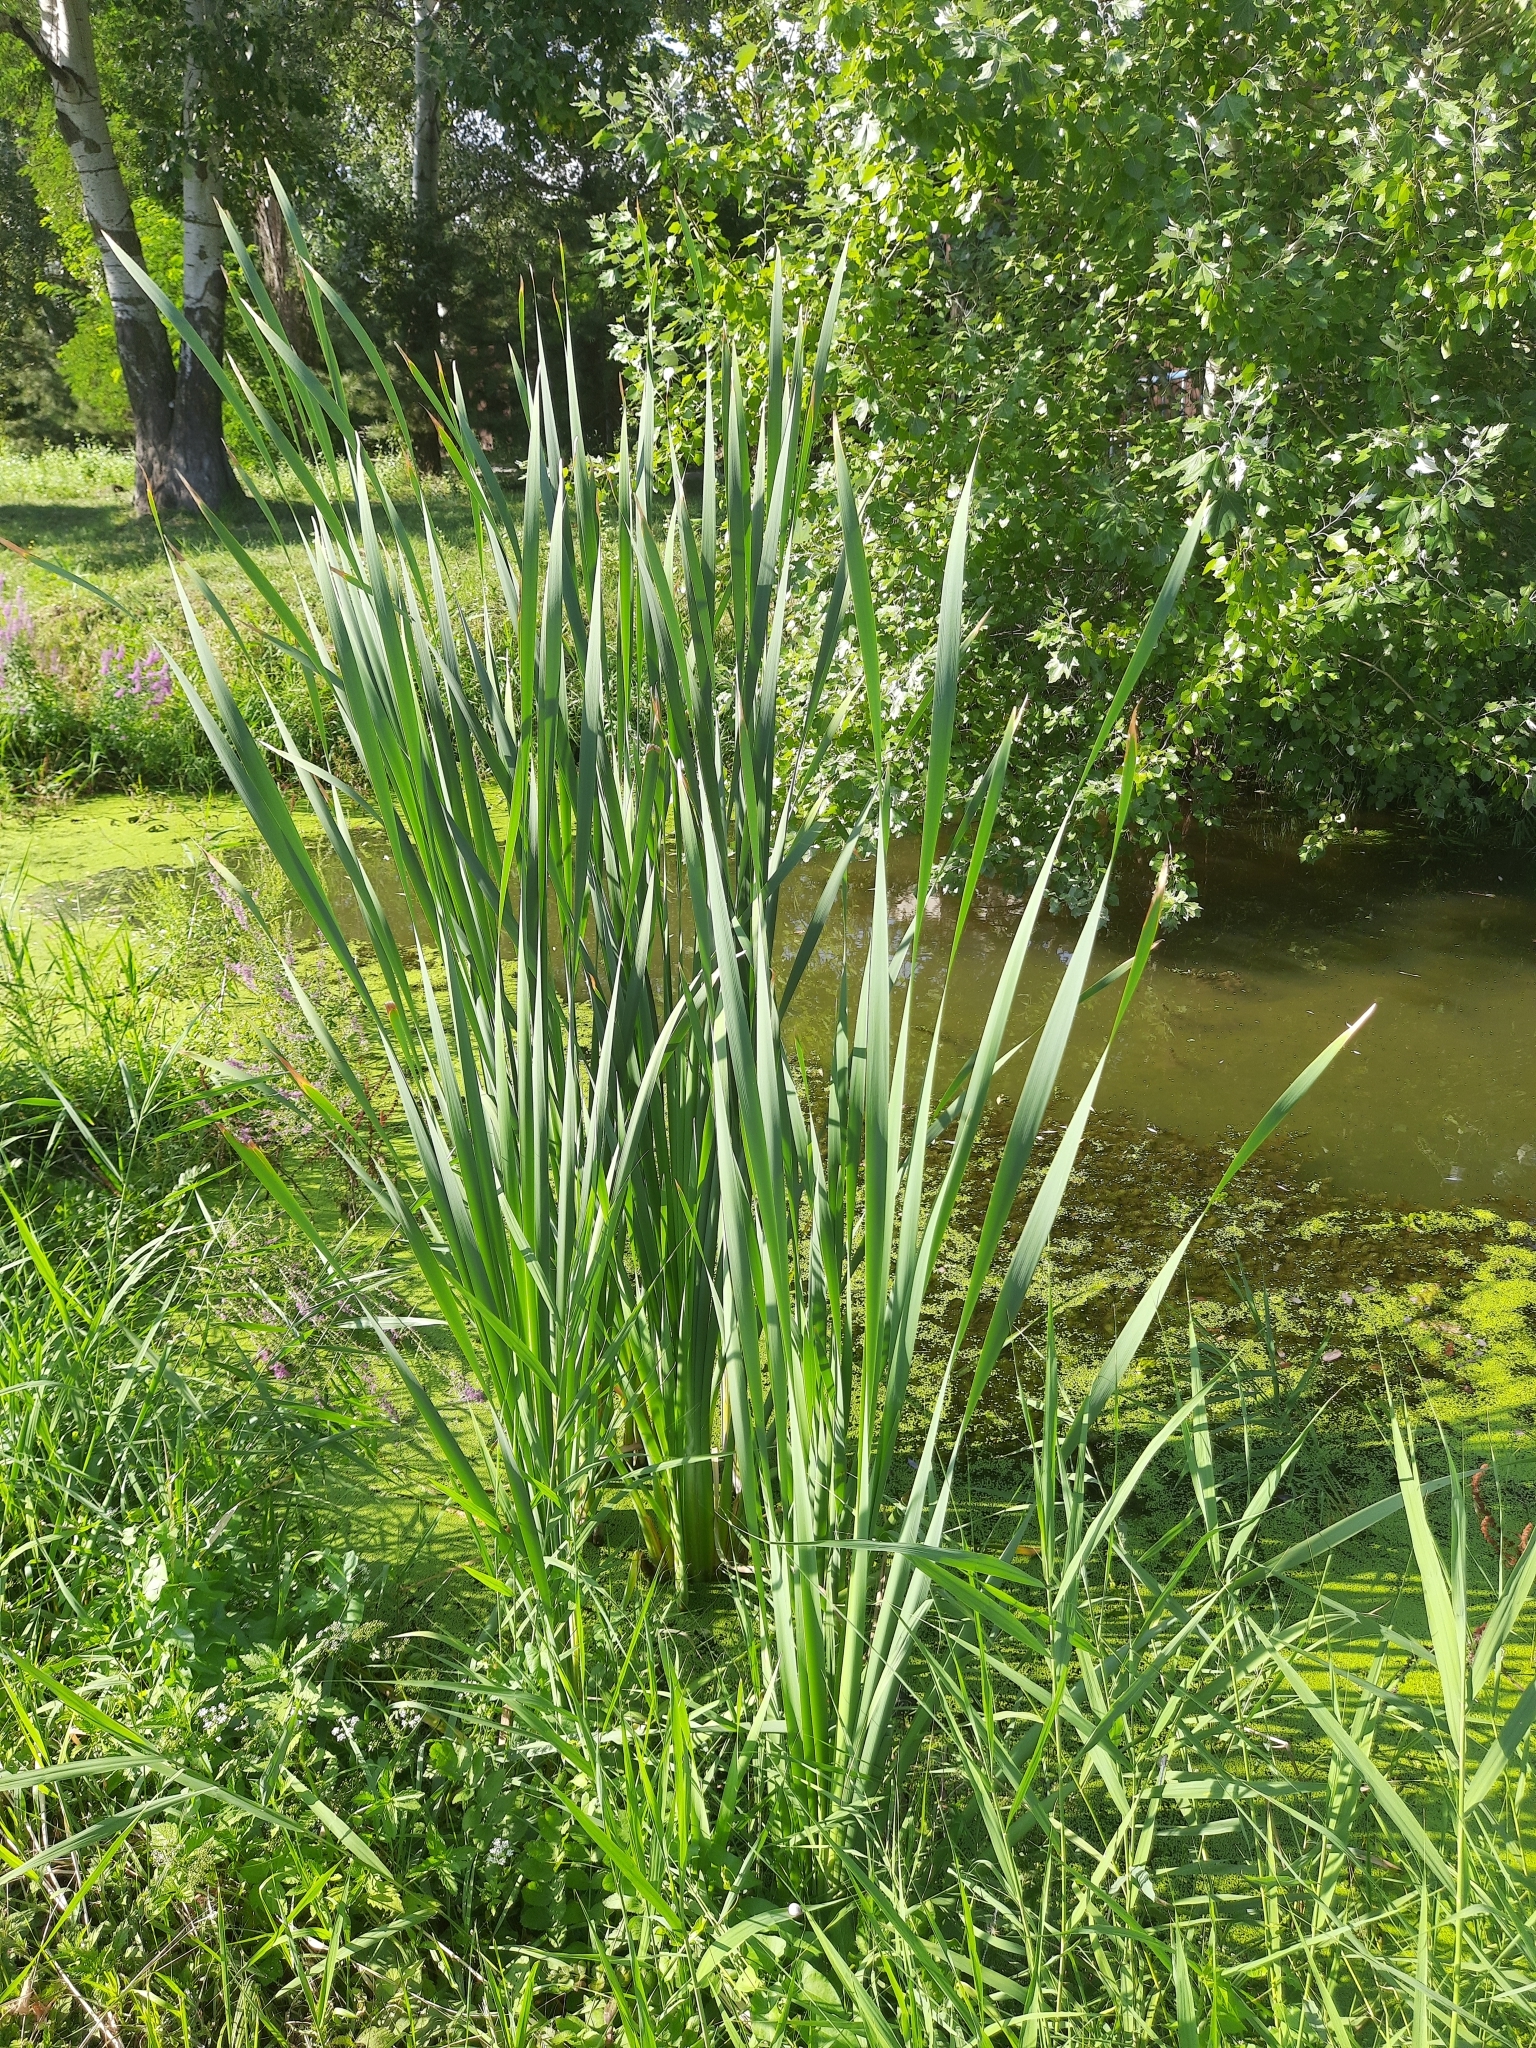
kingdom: Plantae
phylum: Tracheophyta
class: Liliopsida
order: Poales
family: Typhaceae
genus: Typha
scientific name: Typha latifolia
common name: Broadleaf cattail
